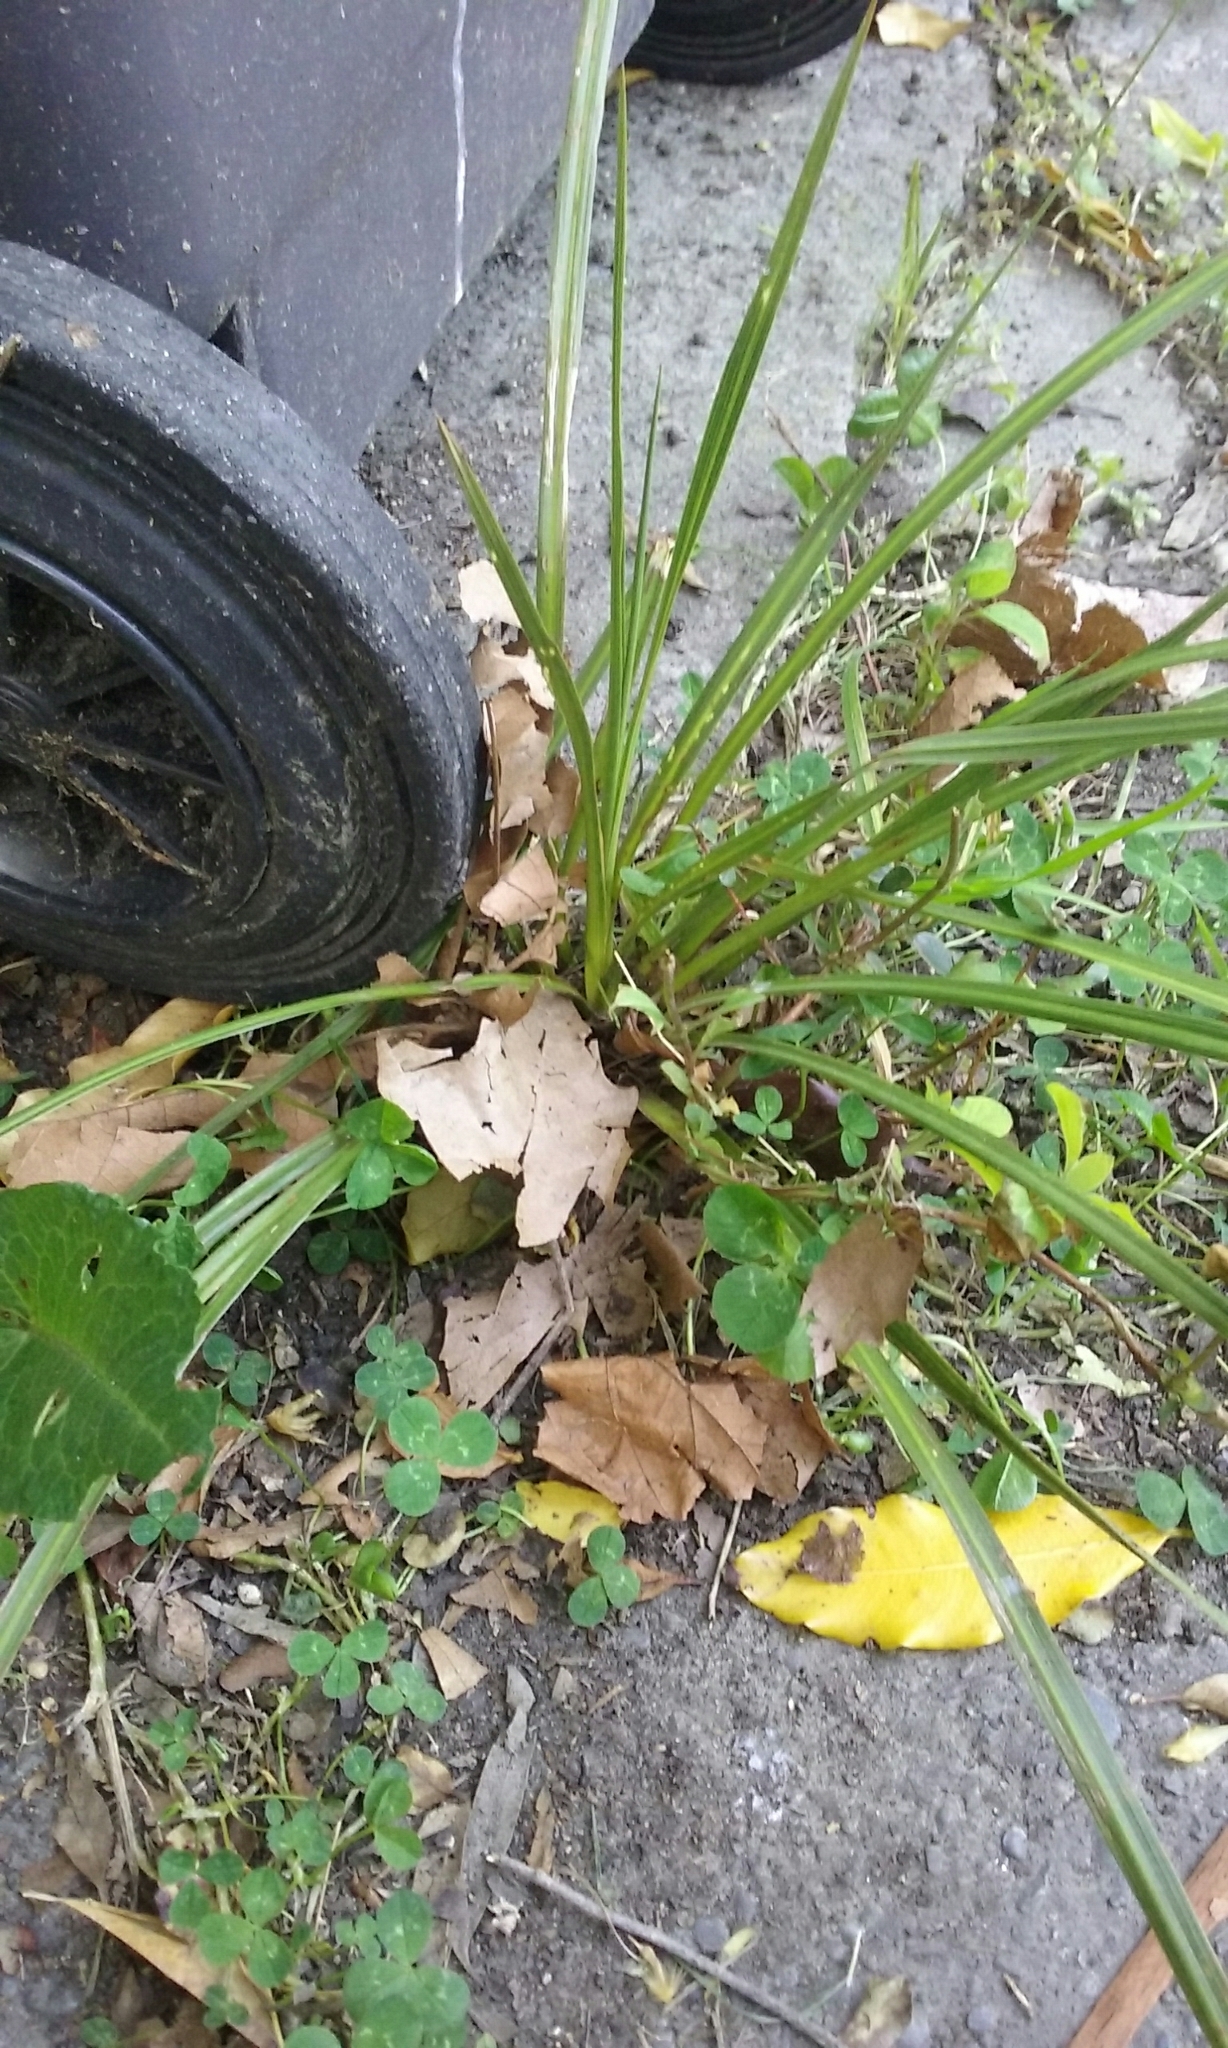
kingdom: Plantae
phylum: Tracheophyta
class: Liliopsida
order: Asparagales
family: Asparagaceae
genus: Cordyline
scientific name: Cordyline australis
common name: Cabbage-palm
